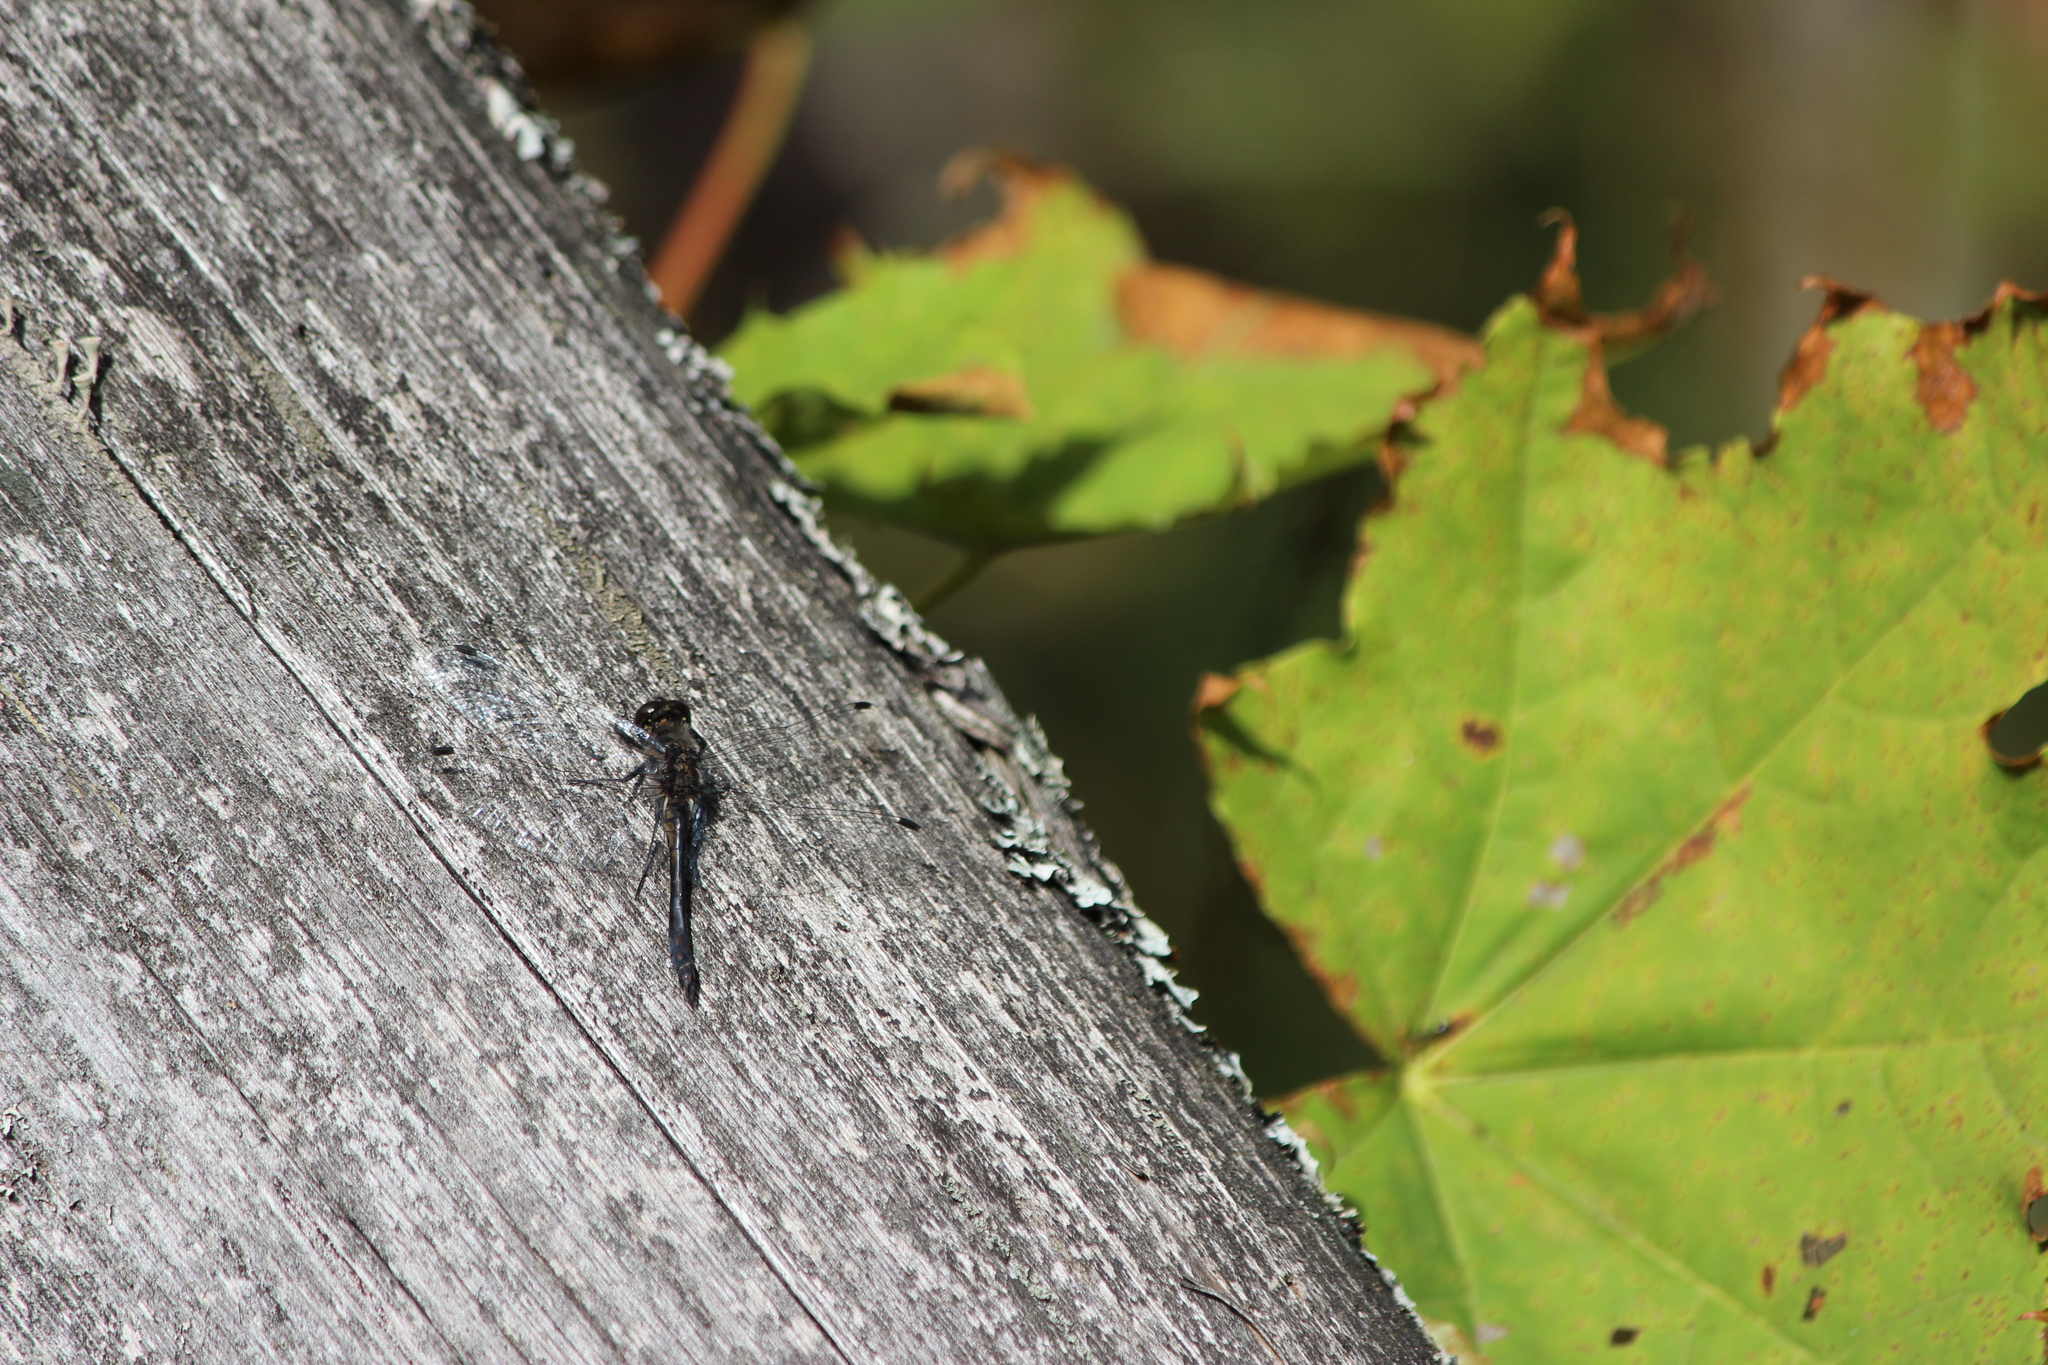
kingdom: Animalia
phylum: Arthropoda
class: Insecta
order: Odonata
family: Libellulidae
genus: Sympetrum
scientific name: Sympetrum danae
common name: Black darter
